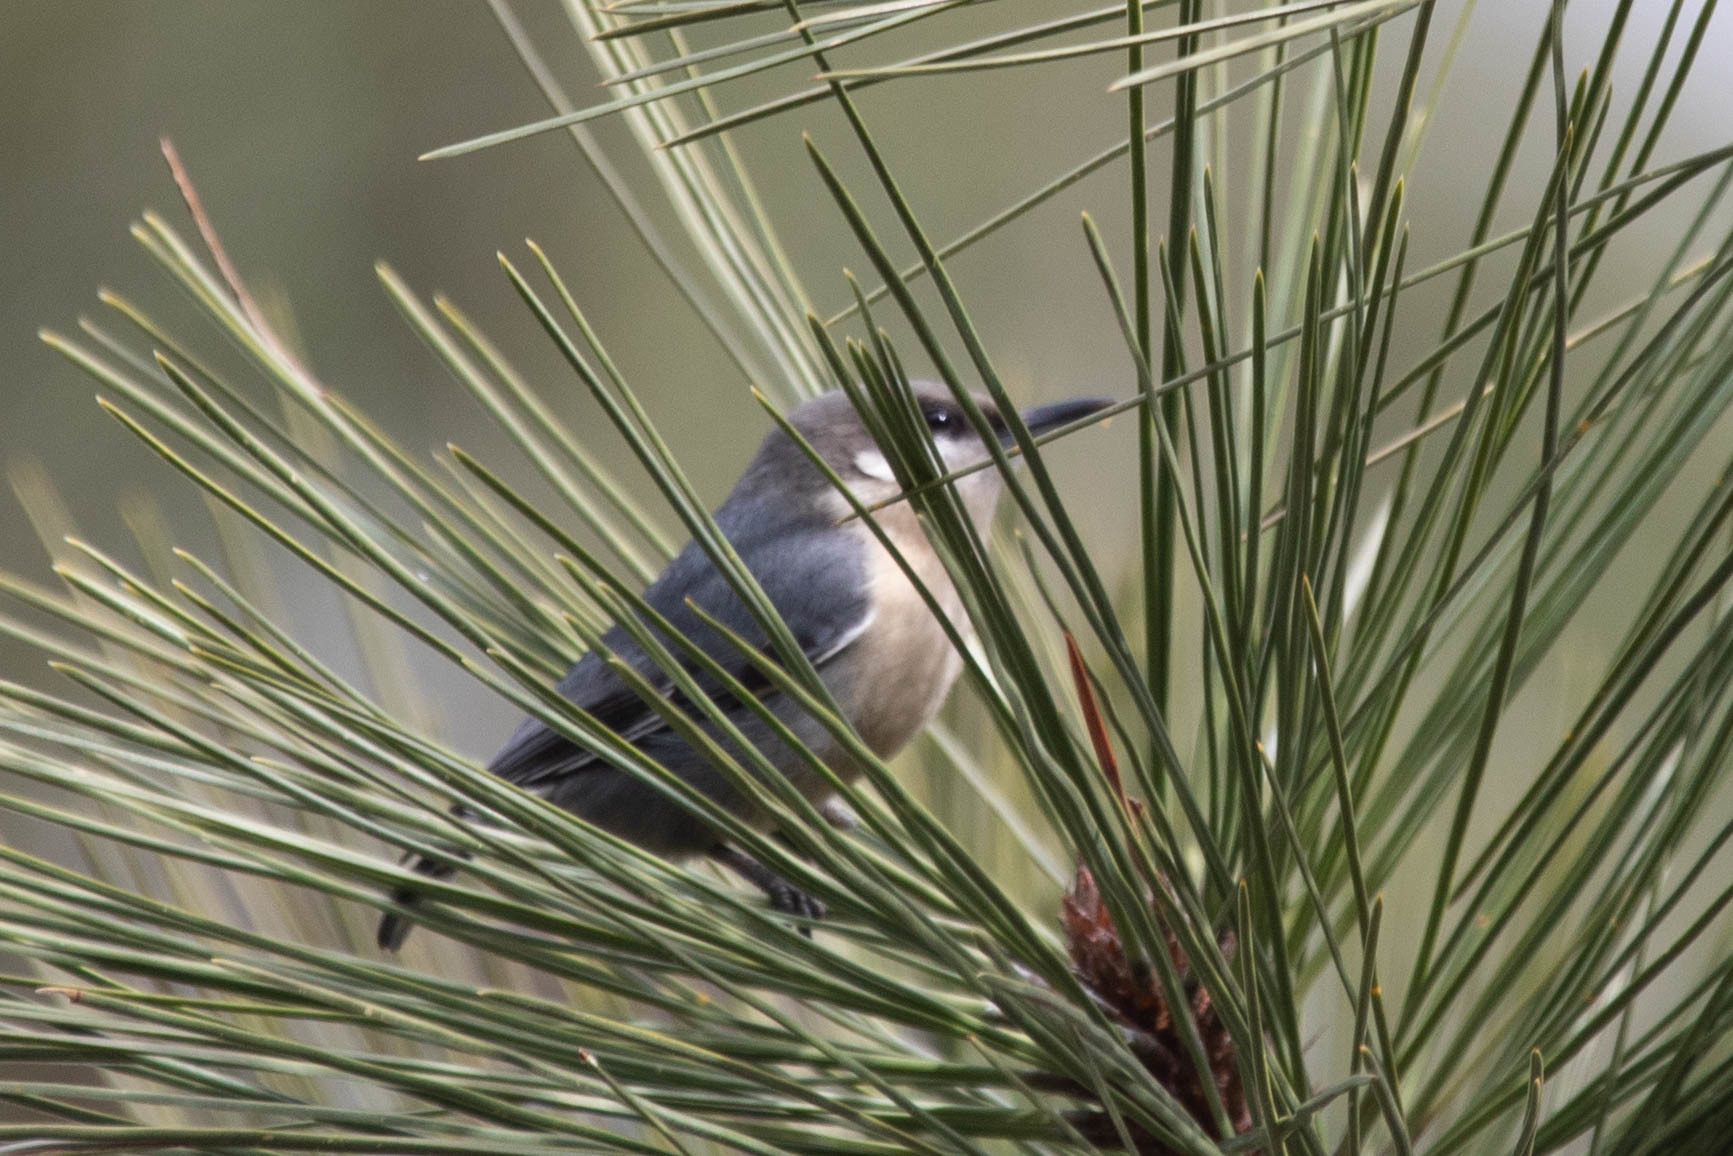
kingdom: Animalia
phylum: Chordata
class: Aves
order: Passeriformes
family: Sittidae
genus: Sitta
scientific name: Sitta pygmaea
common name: Pygmy nuthatch
